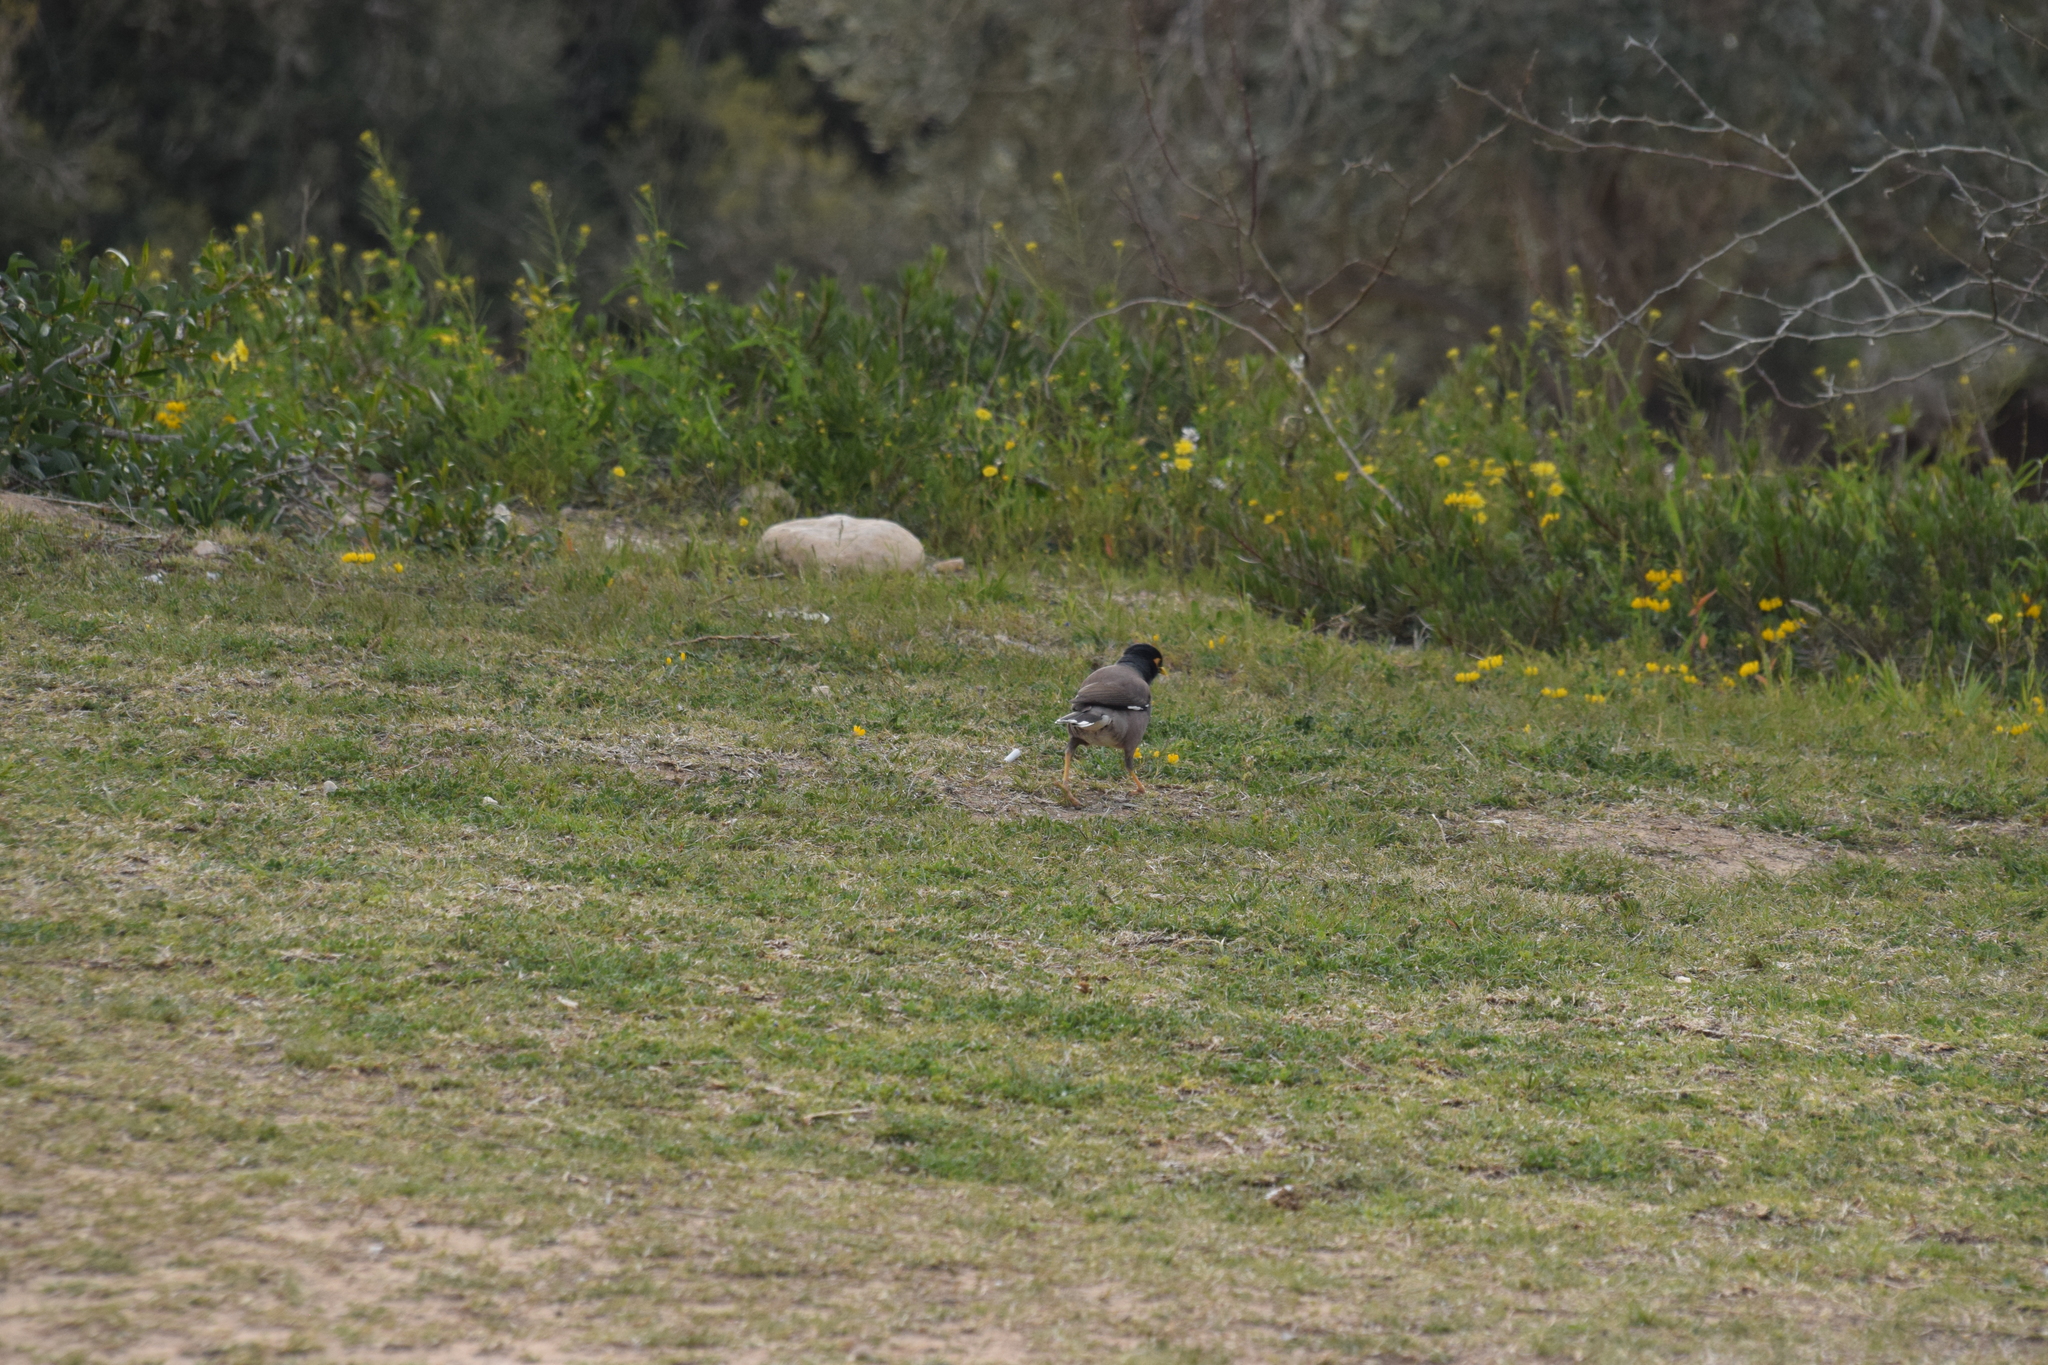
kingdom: Animalia
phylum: Chordata
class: Aves
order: Passeriformes
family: Sturnidae
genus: Acridotheres
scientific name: Acridotheres tristis
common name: Common myna
